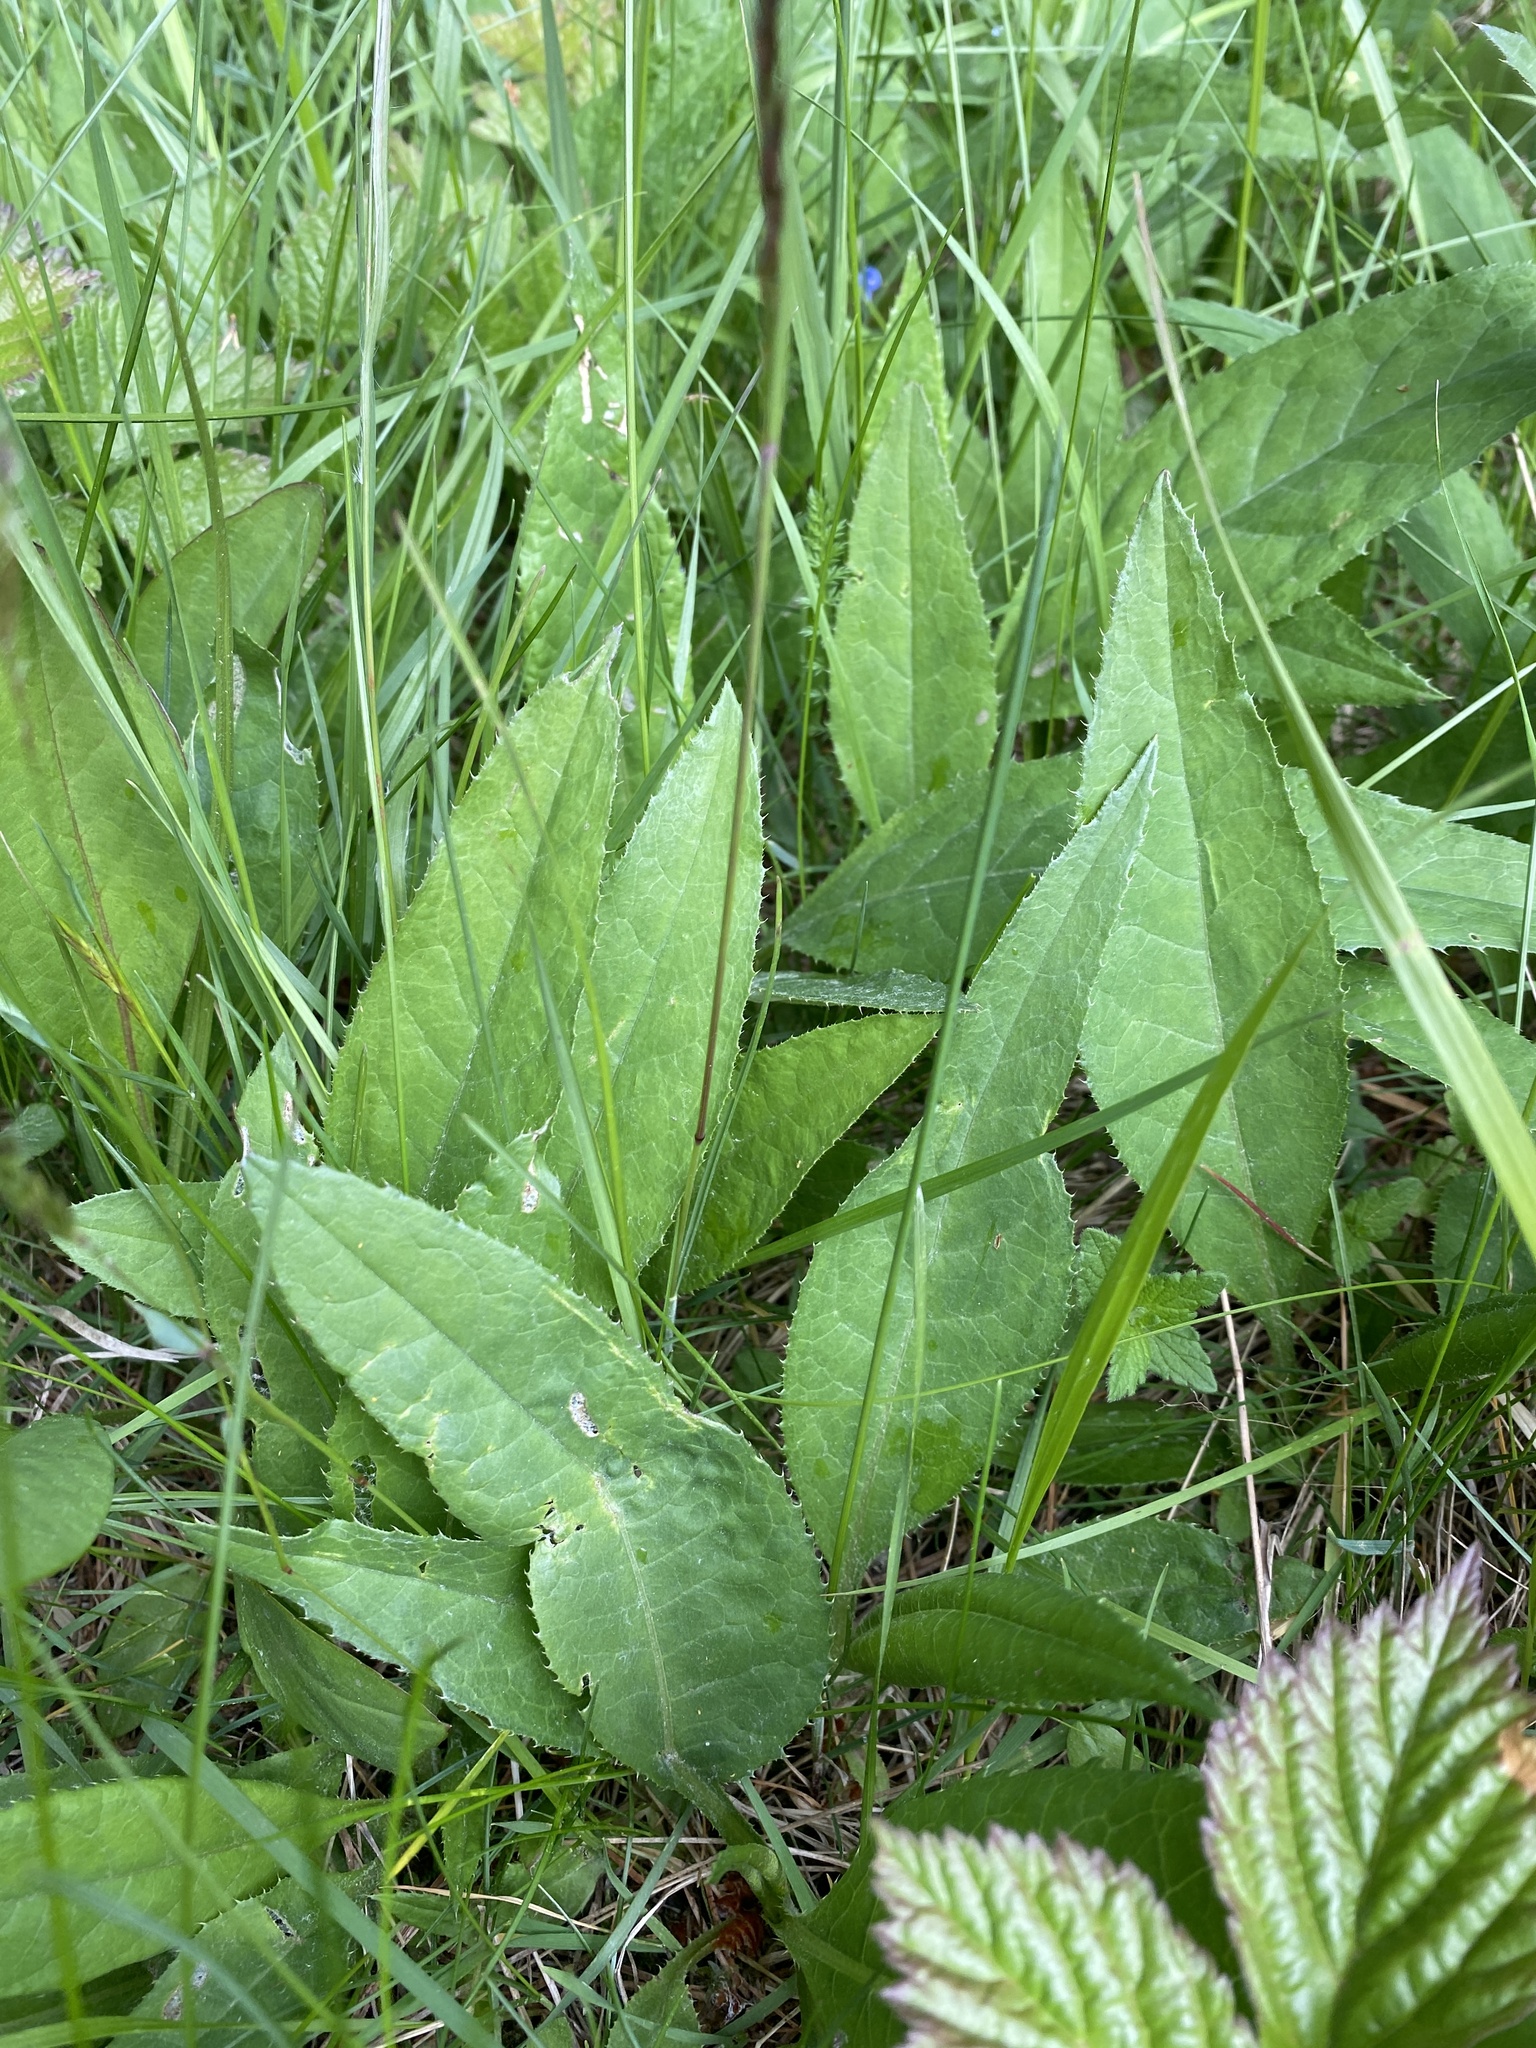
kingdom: Plantae
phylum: Tracheophyta
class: Magnoliopsida
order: Asterales
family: Asteraceae
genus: Cirsium
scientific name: Cirsium heterophyllum
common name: Melancholy thistle
